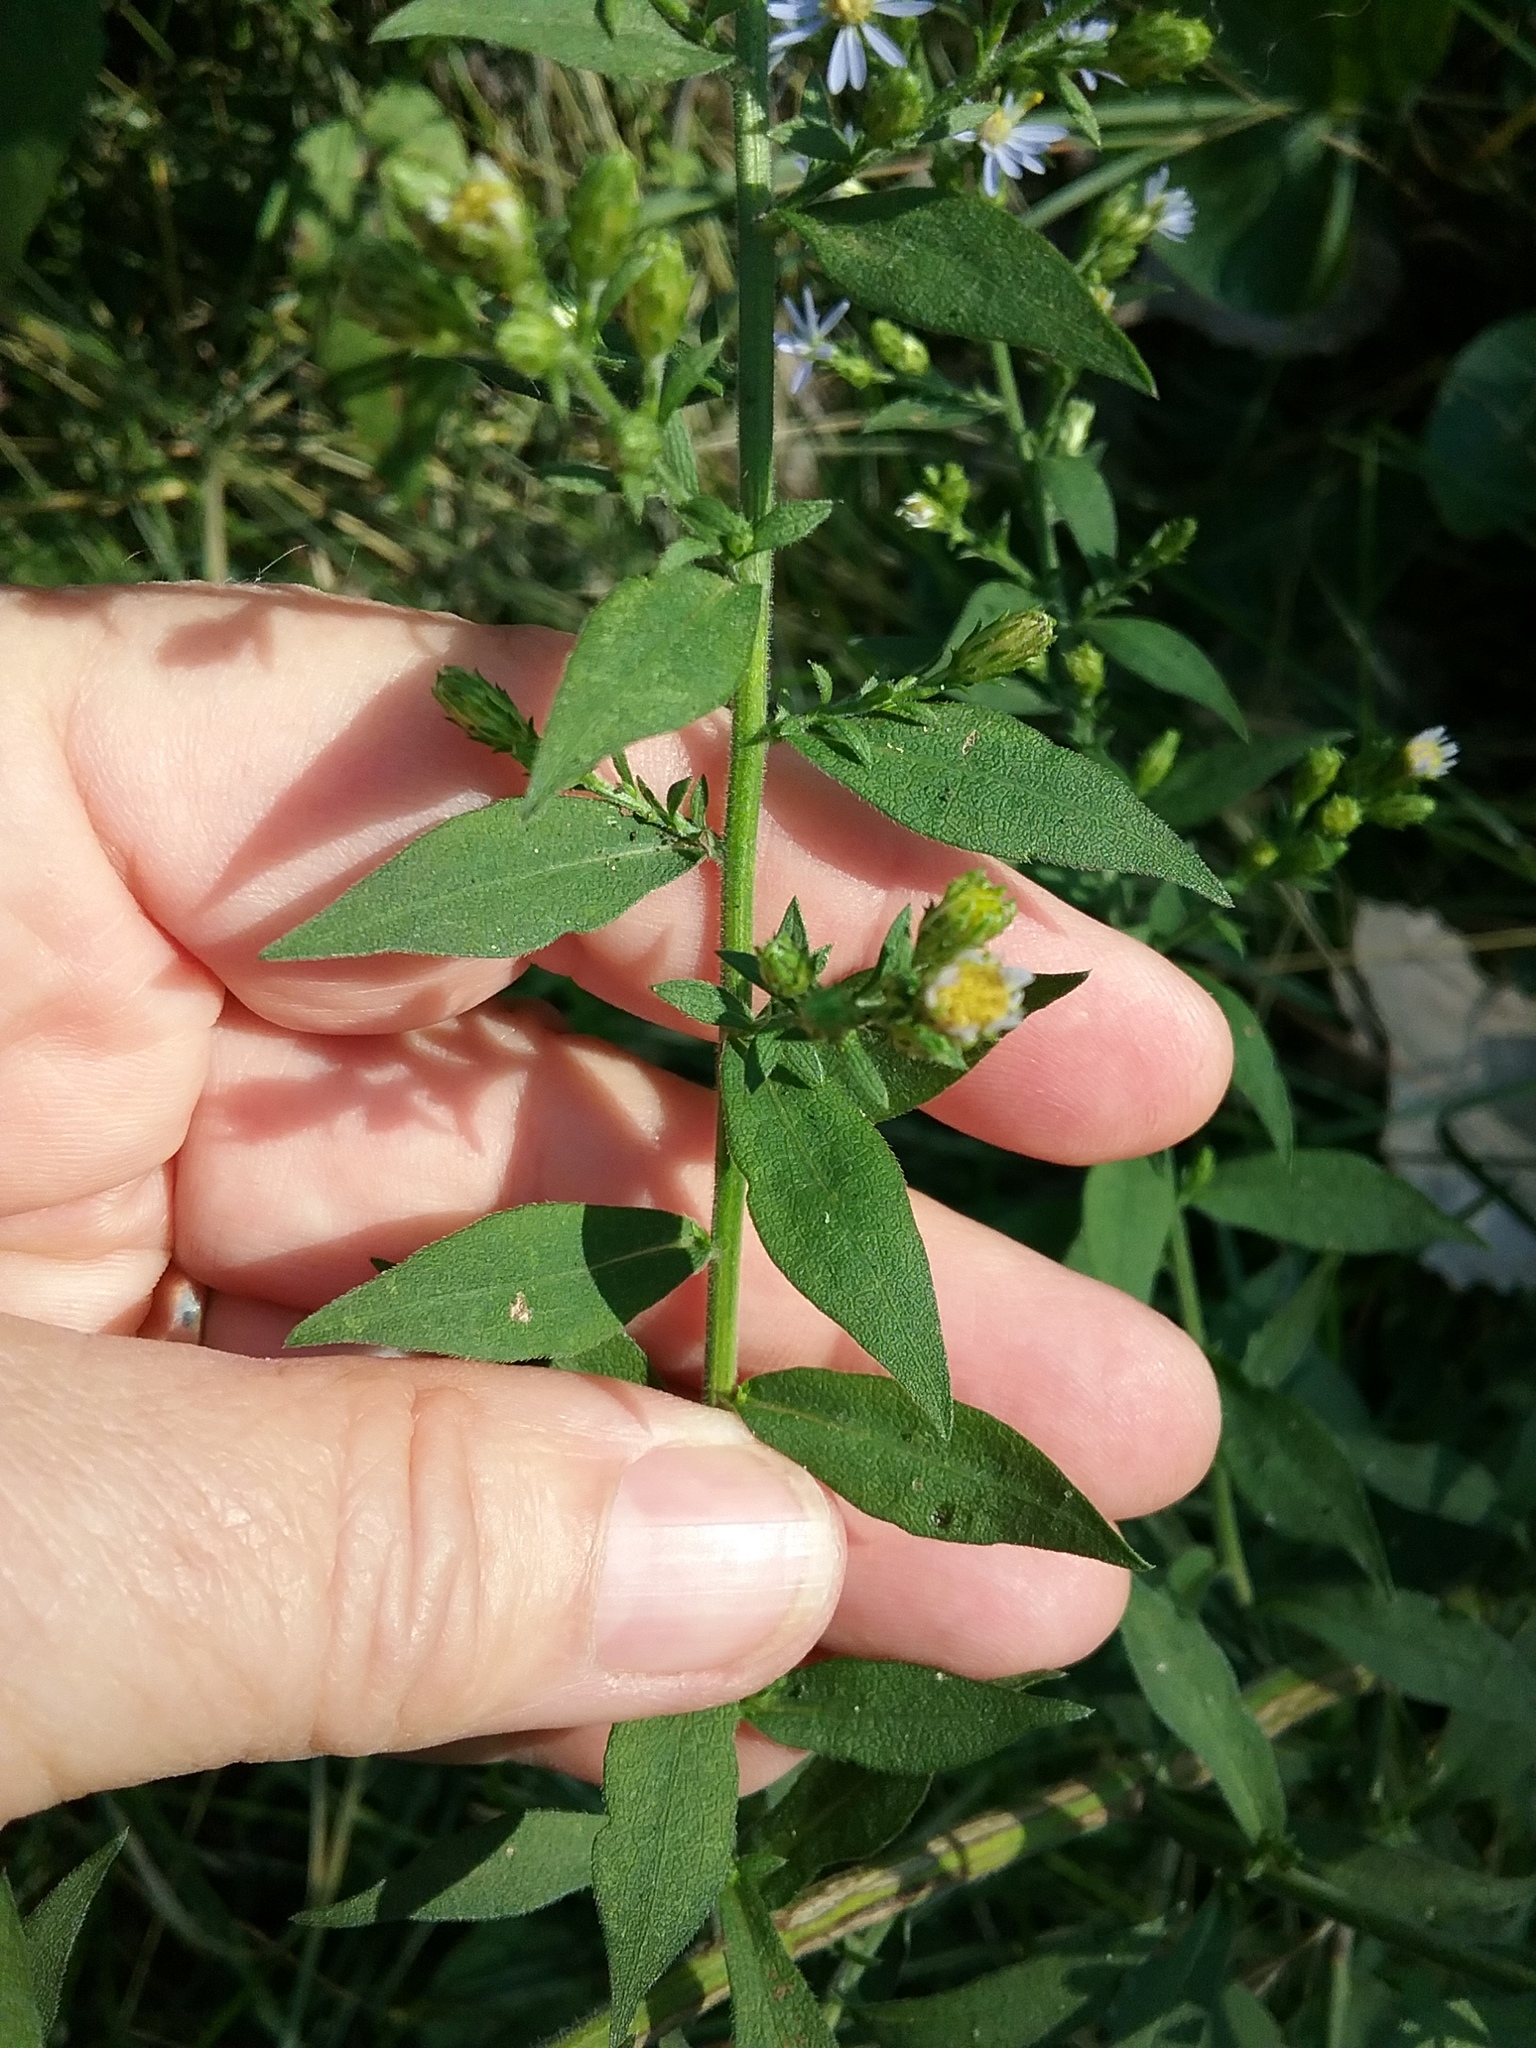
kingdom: Plantae
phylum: Tracheophyta
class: Magnoliopsida
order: Asterales
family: Asteraceae
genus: Symphyotrichum
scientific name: Symphyotrichum drummondii
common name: Drummond's aster
